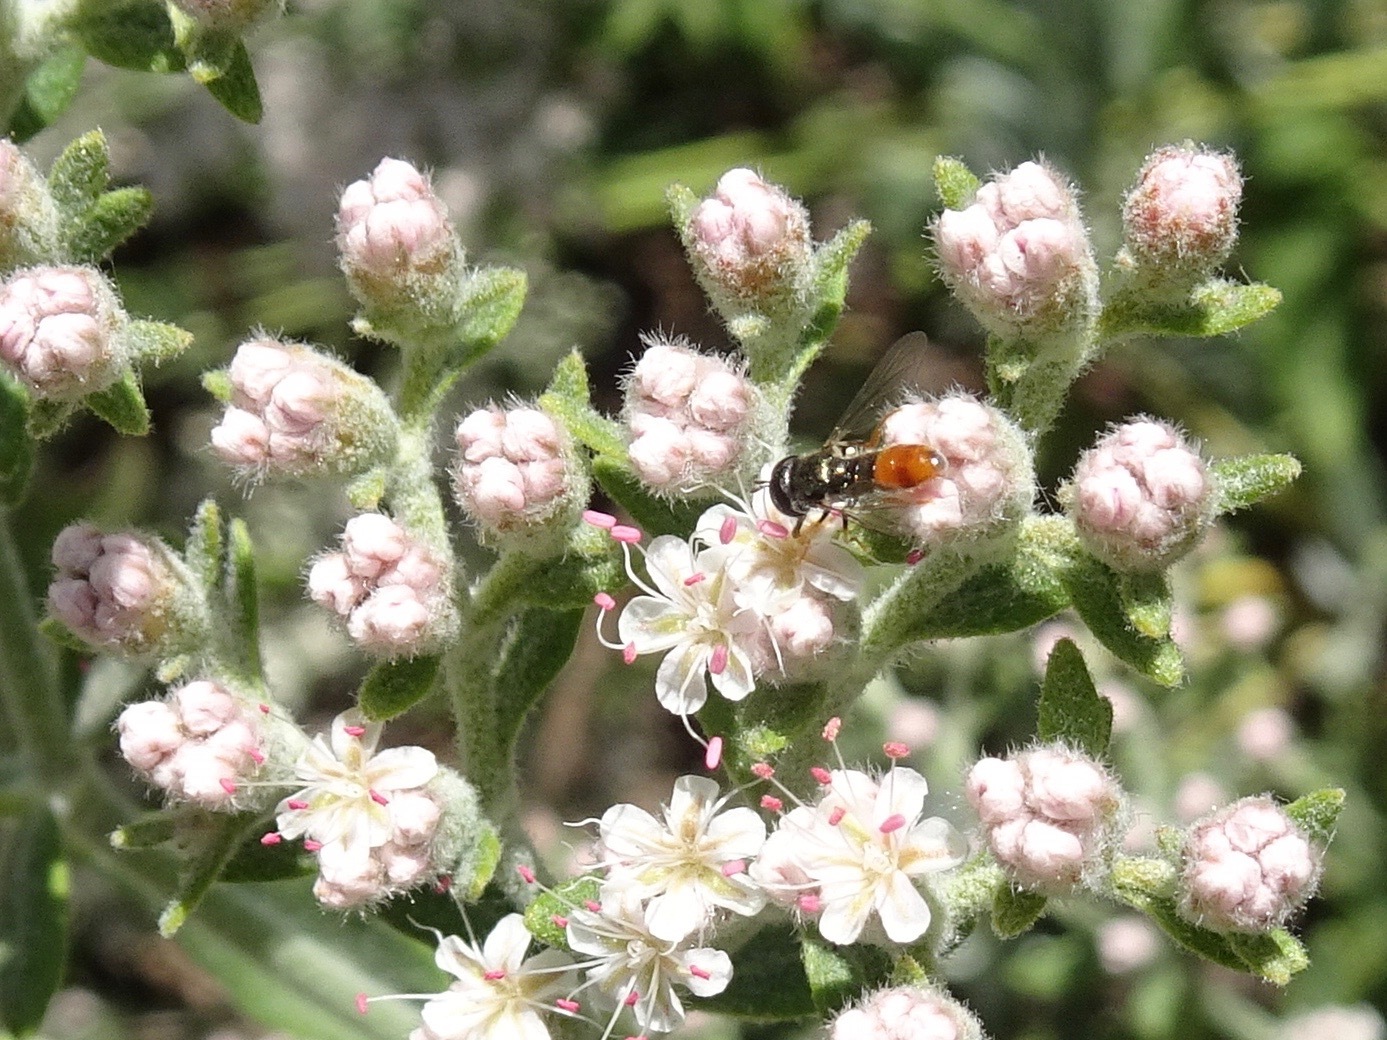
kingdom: Animalia
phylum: Arthropoda
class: Insecta
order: Diptera
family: Syrphidae
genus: Paragus
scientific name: Paragus haemorrhous
